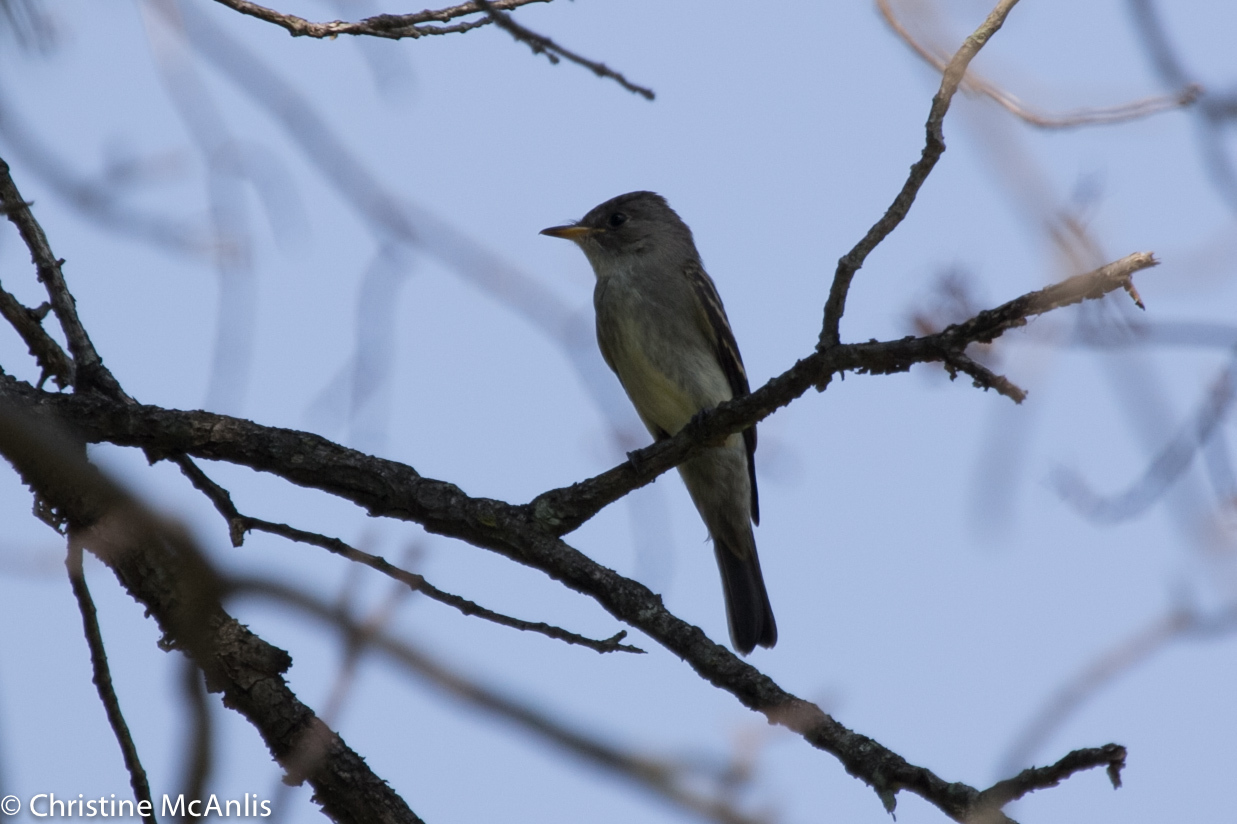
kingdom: Animalia
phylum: Chordata
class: Aves
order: Passeriformes
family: Tyrannidae
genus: Contopus
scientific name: Contopus virens
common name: Eastern wood-pewee
